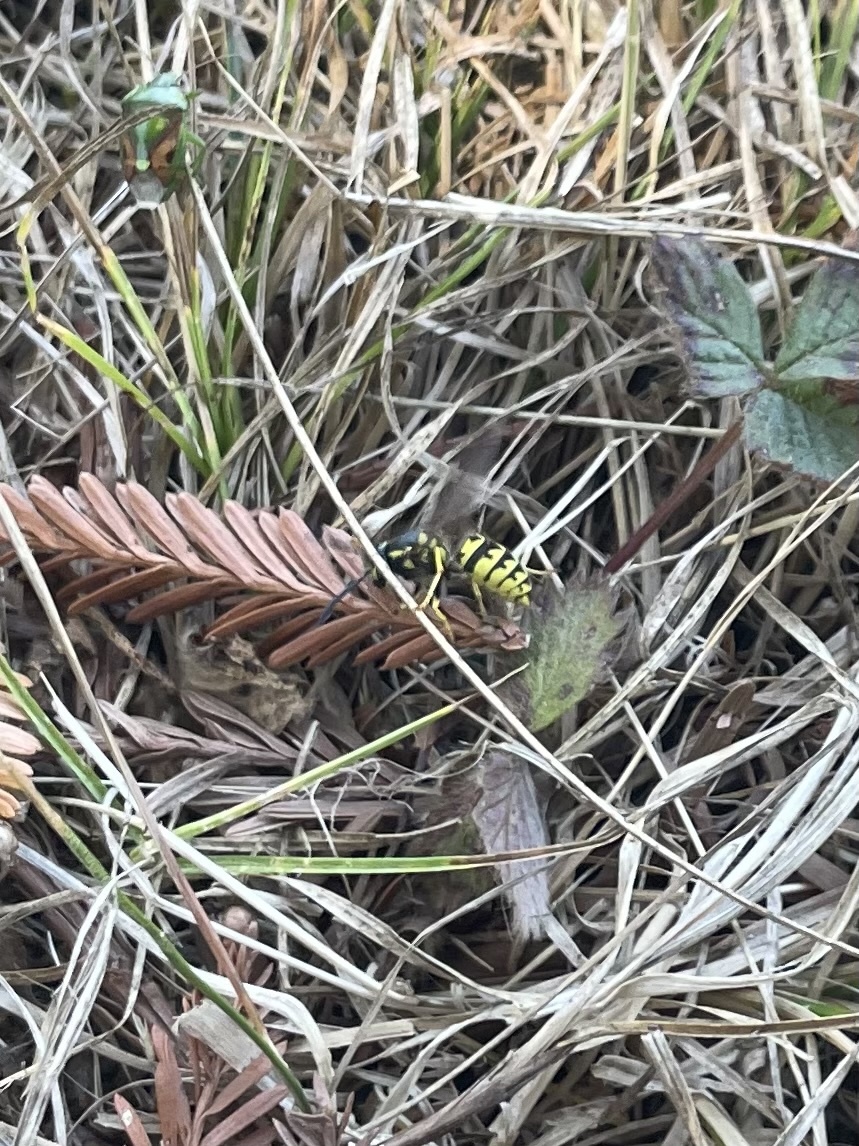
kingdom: Animalia
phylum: Arthropoda
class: Insecta
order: Hymenoptera
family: Vespidae
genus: Vespula
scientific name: Vespula pensylvanica
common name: Western yellowjacket
